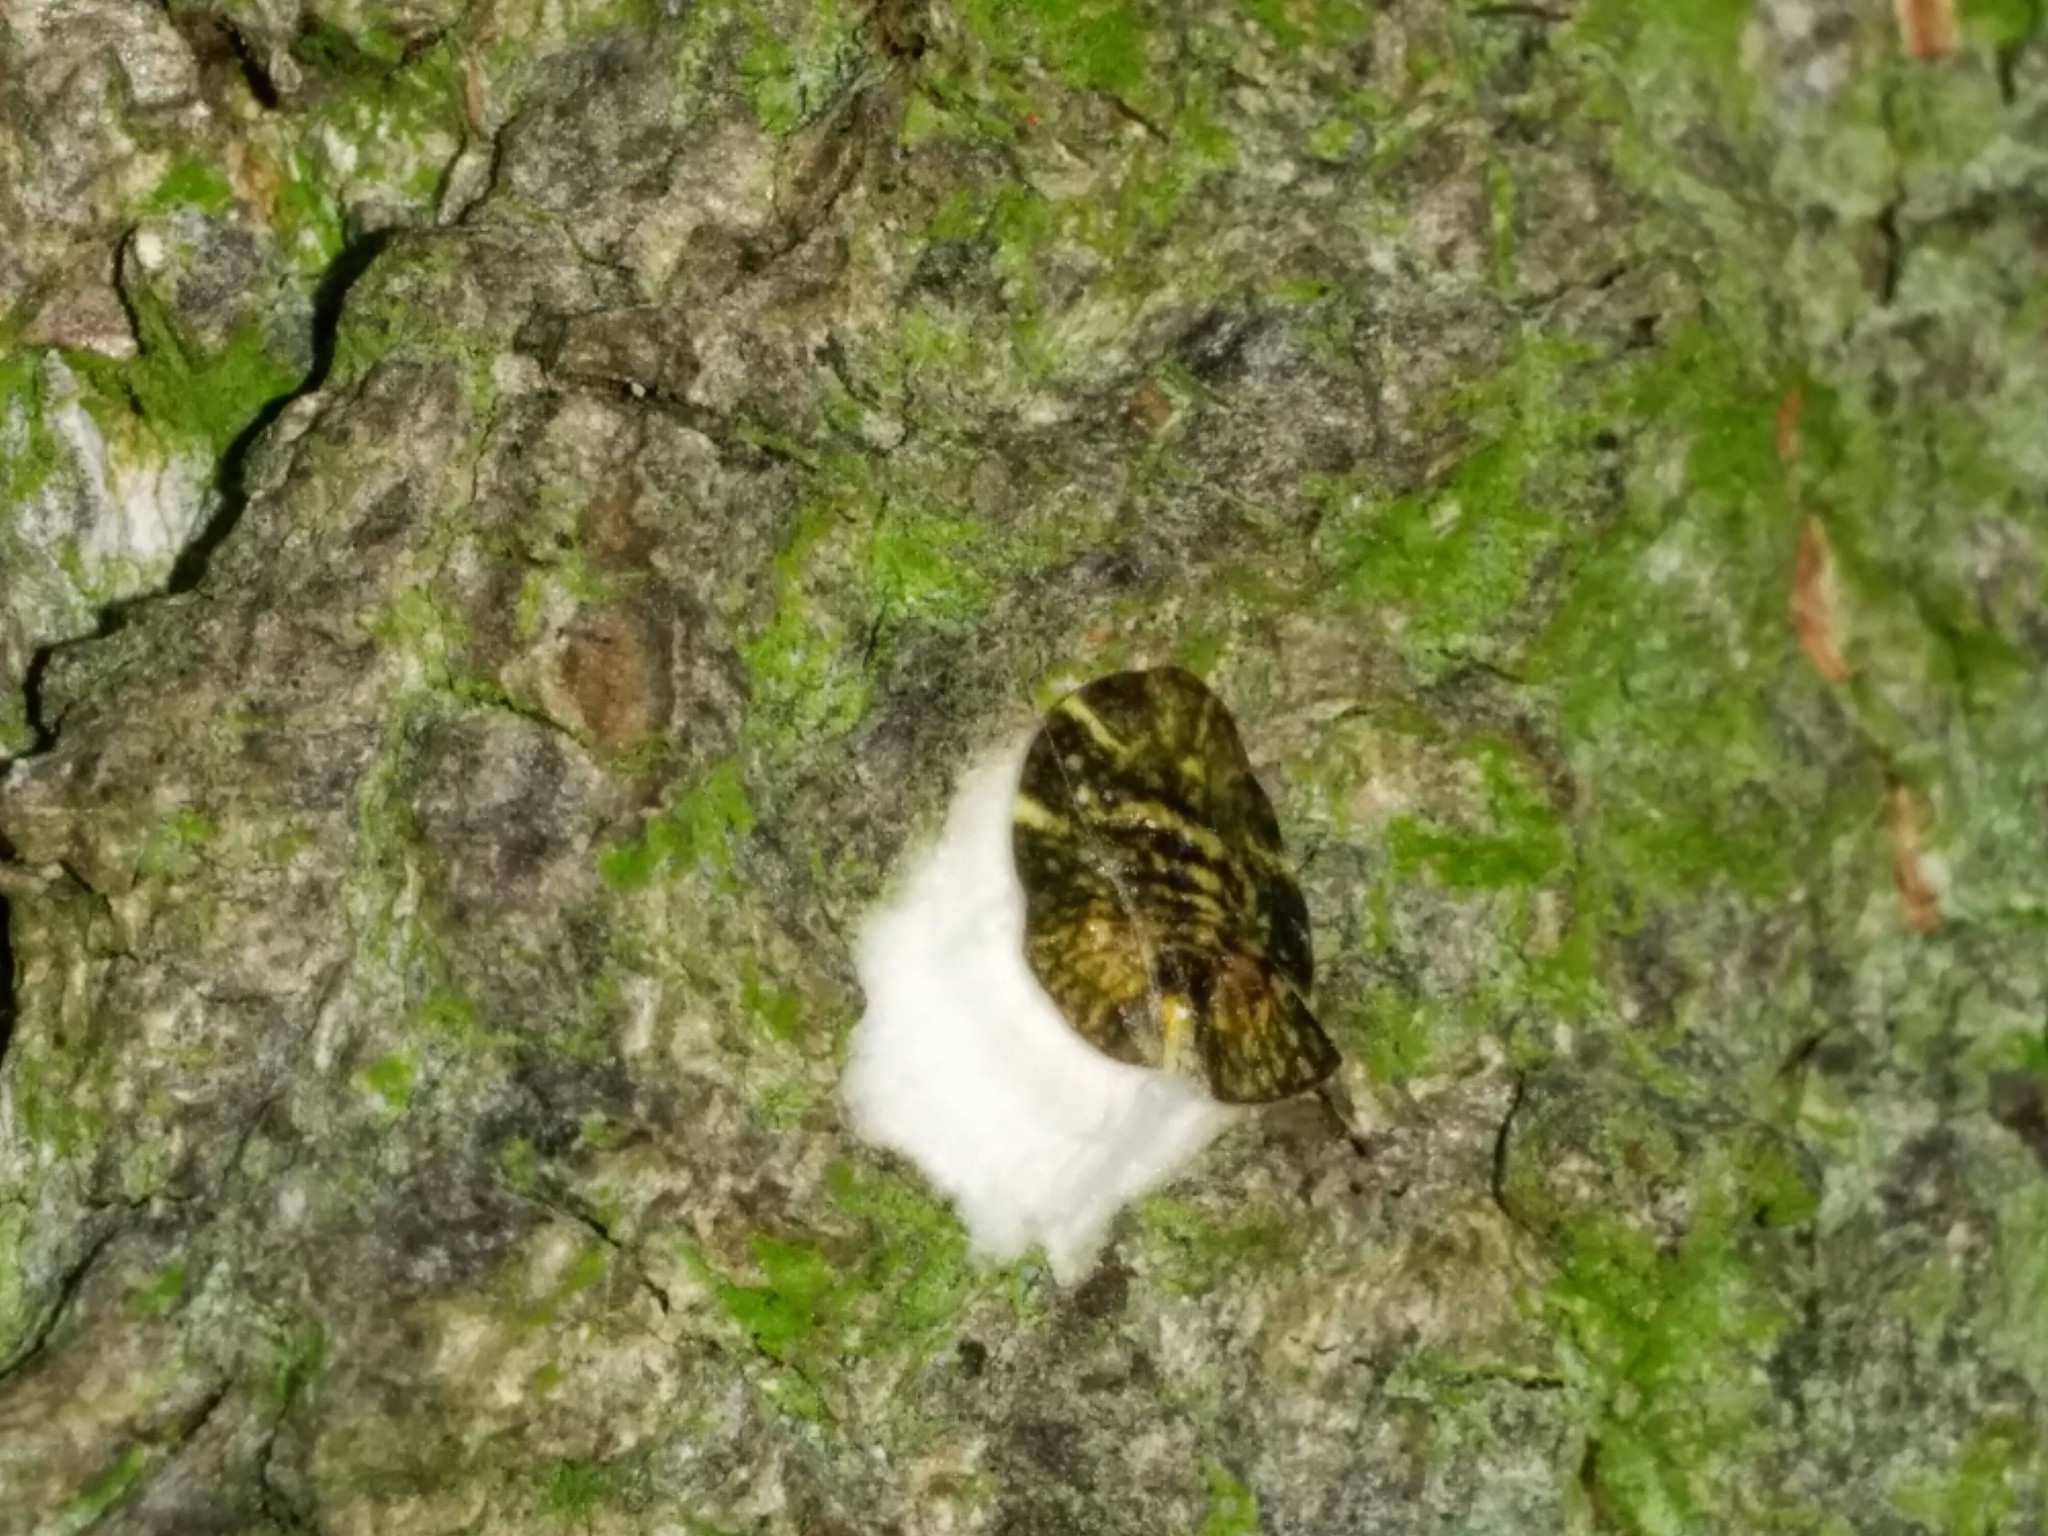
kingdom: Animalia
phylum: Arthropoda
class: Insecta
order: Hemiptera
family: Coccidae
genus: Pulvinaria
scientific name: Pulvinaria regalis
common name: Horse chestnut scale
